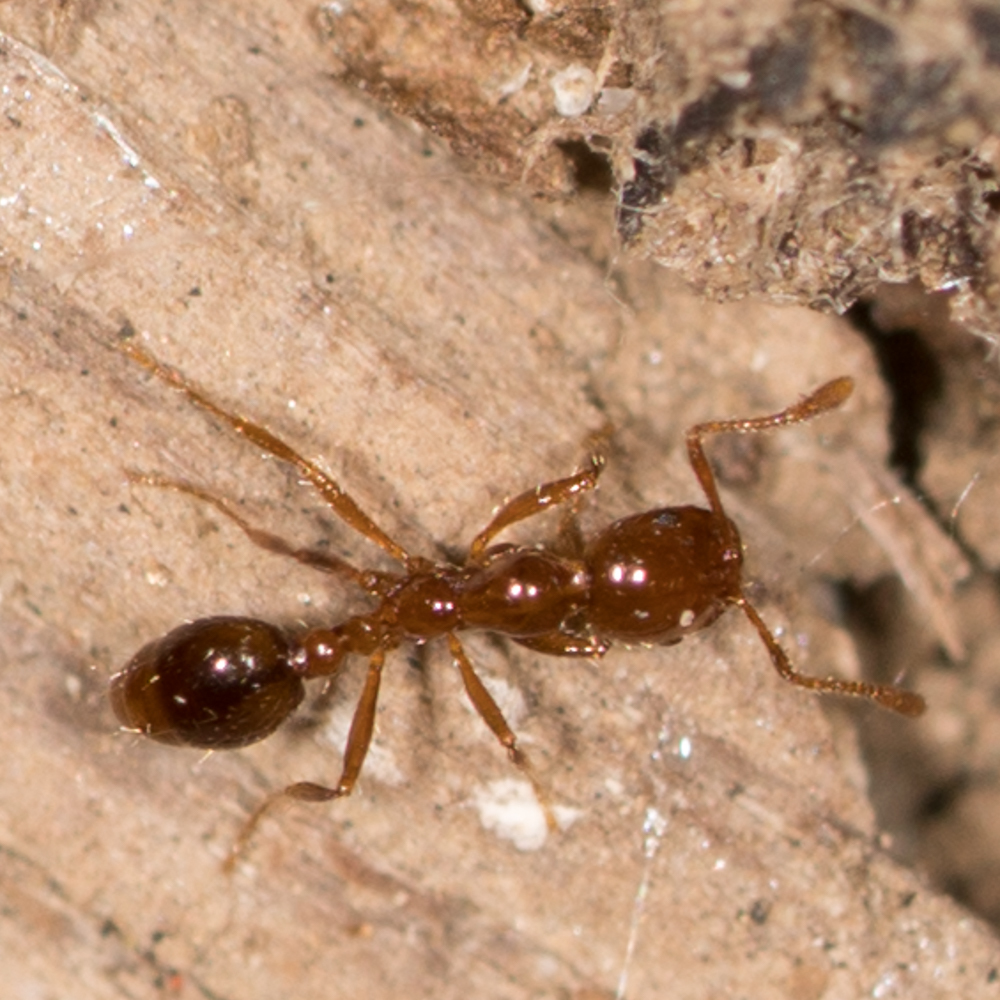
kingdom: Animalia
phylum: Arthropoda
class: Insecta
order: Hymenoptera
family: Formicidae
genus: Solenopsis
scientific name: Solenopsis invicta
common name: Red imported fire ant
